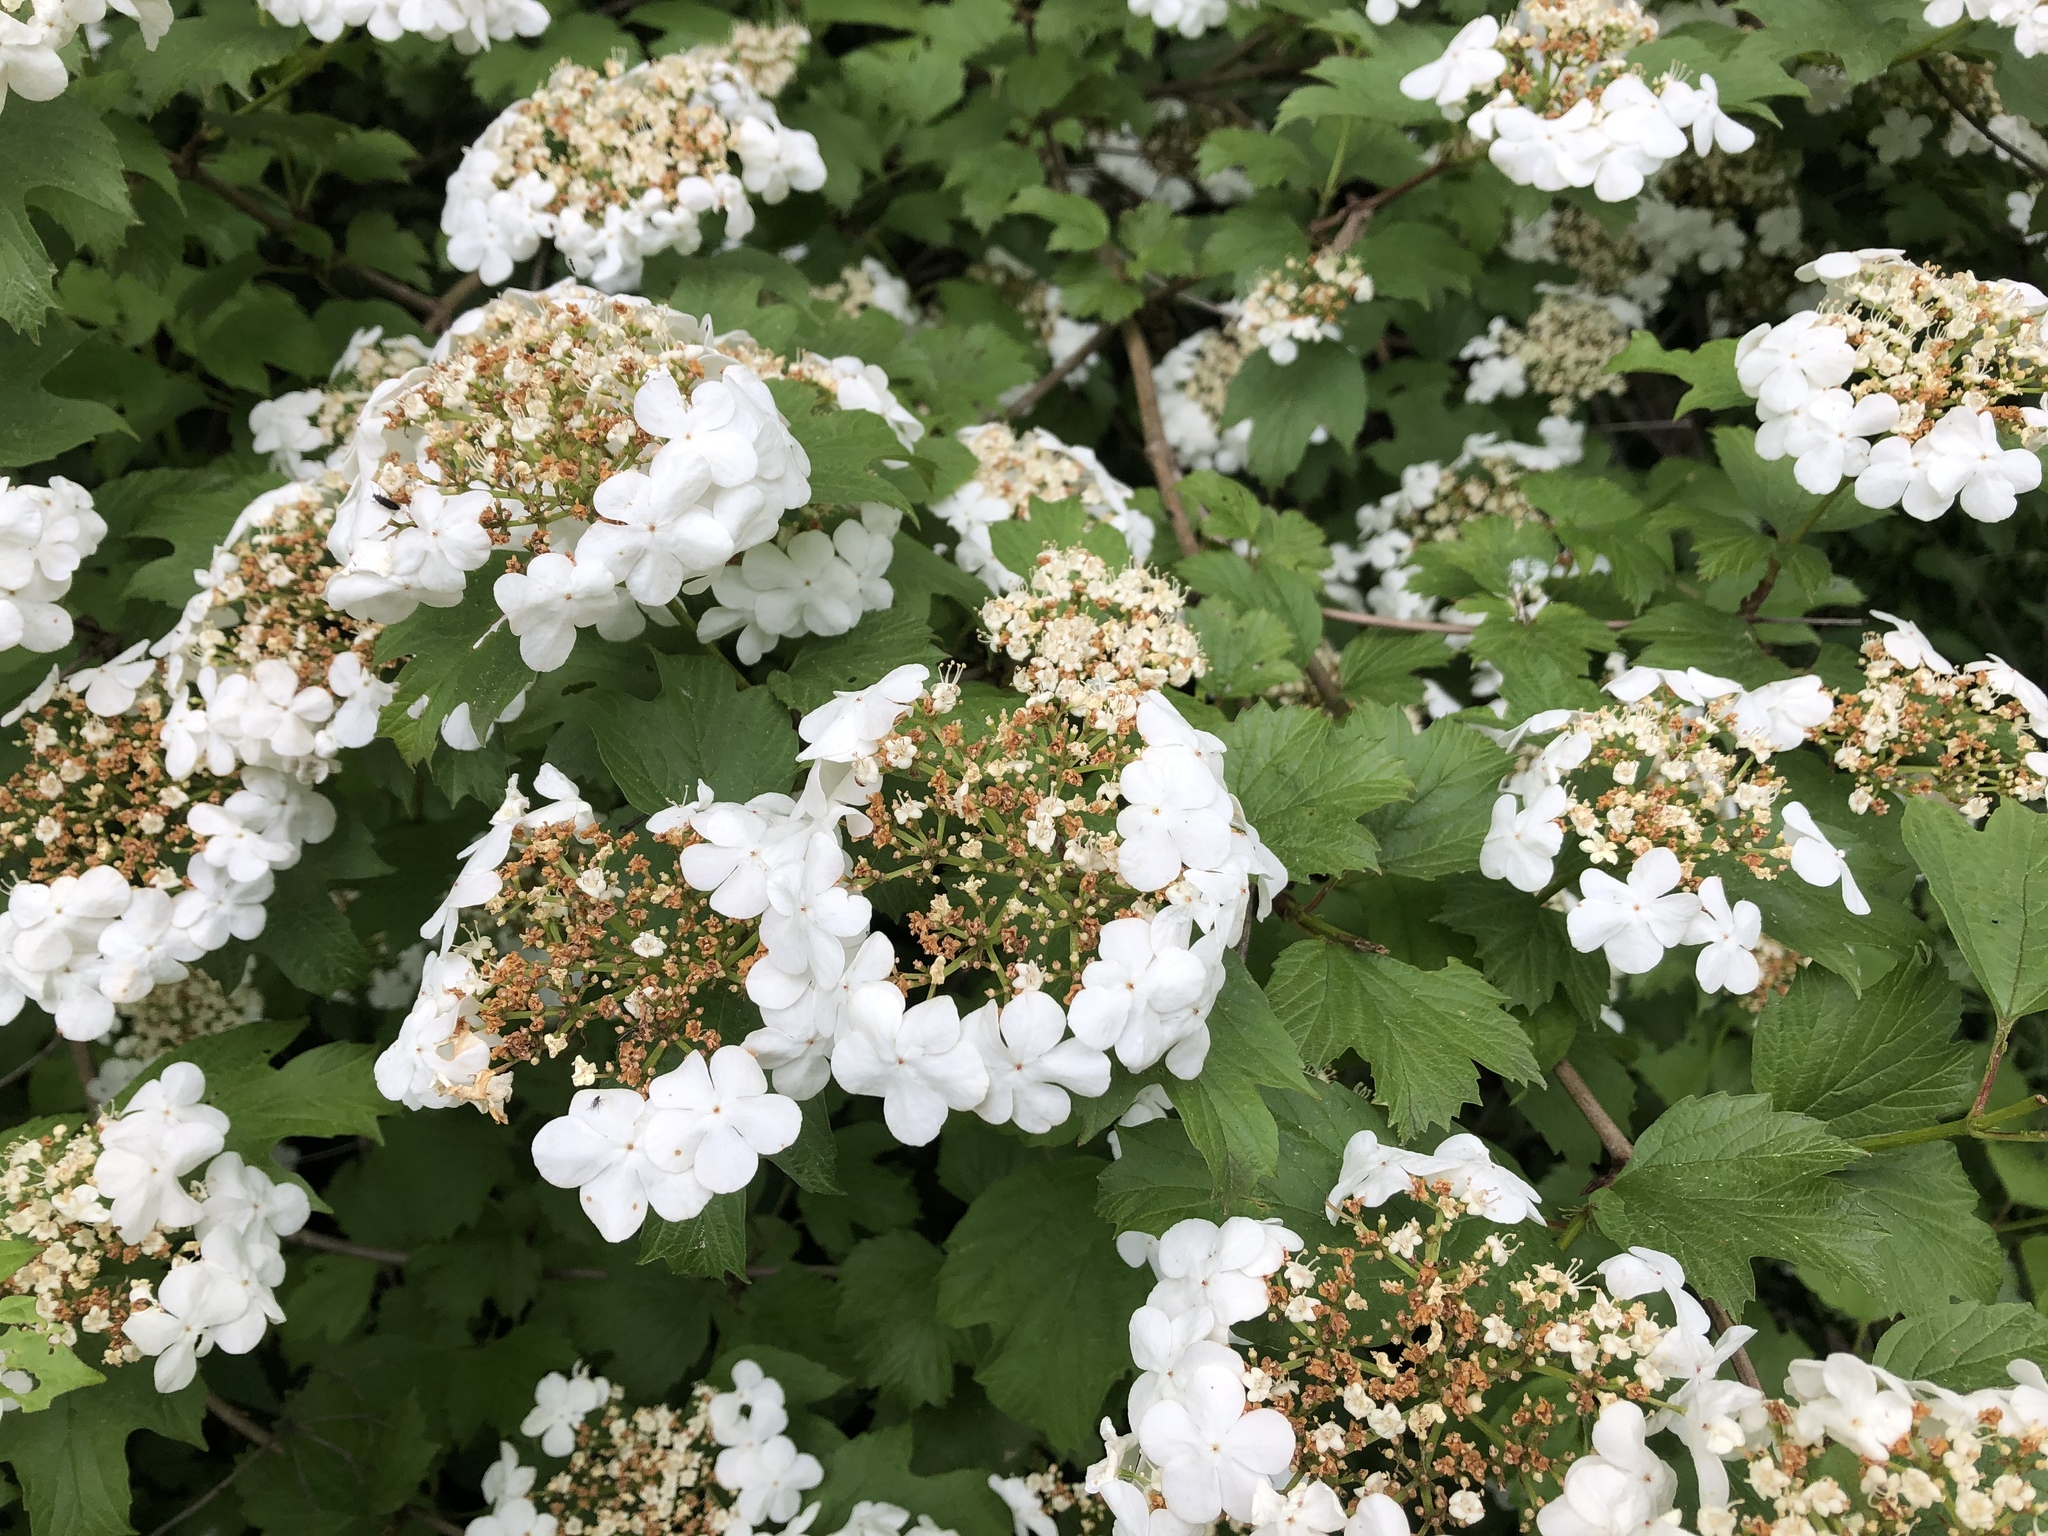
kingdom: Plantae
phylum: Tracheophyta
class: Magnoliopsida
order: Dipsacales
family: Viburnaceae
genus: Viburnum
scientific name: Viburnum opulus
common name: Guelder-rose
